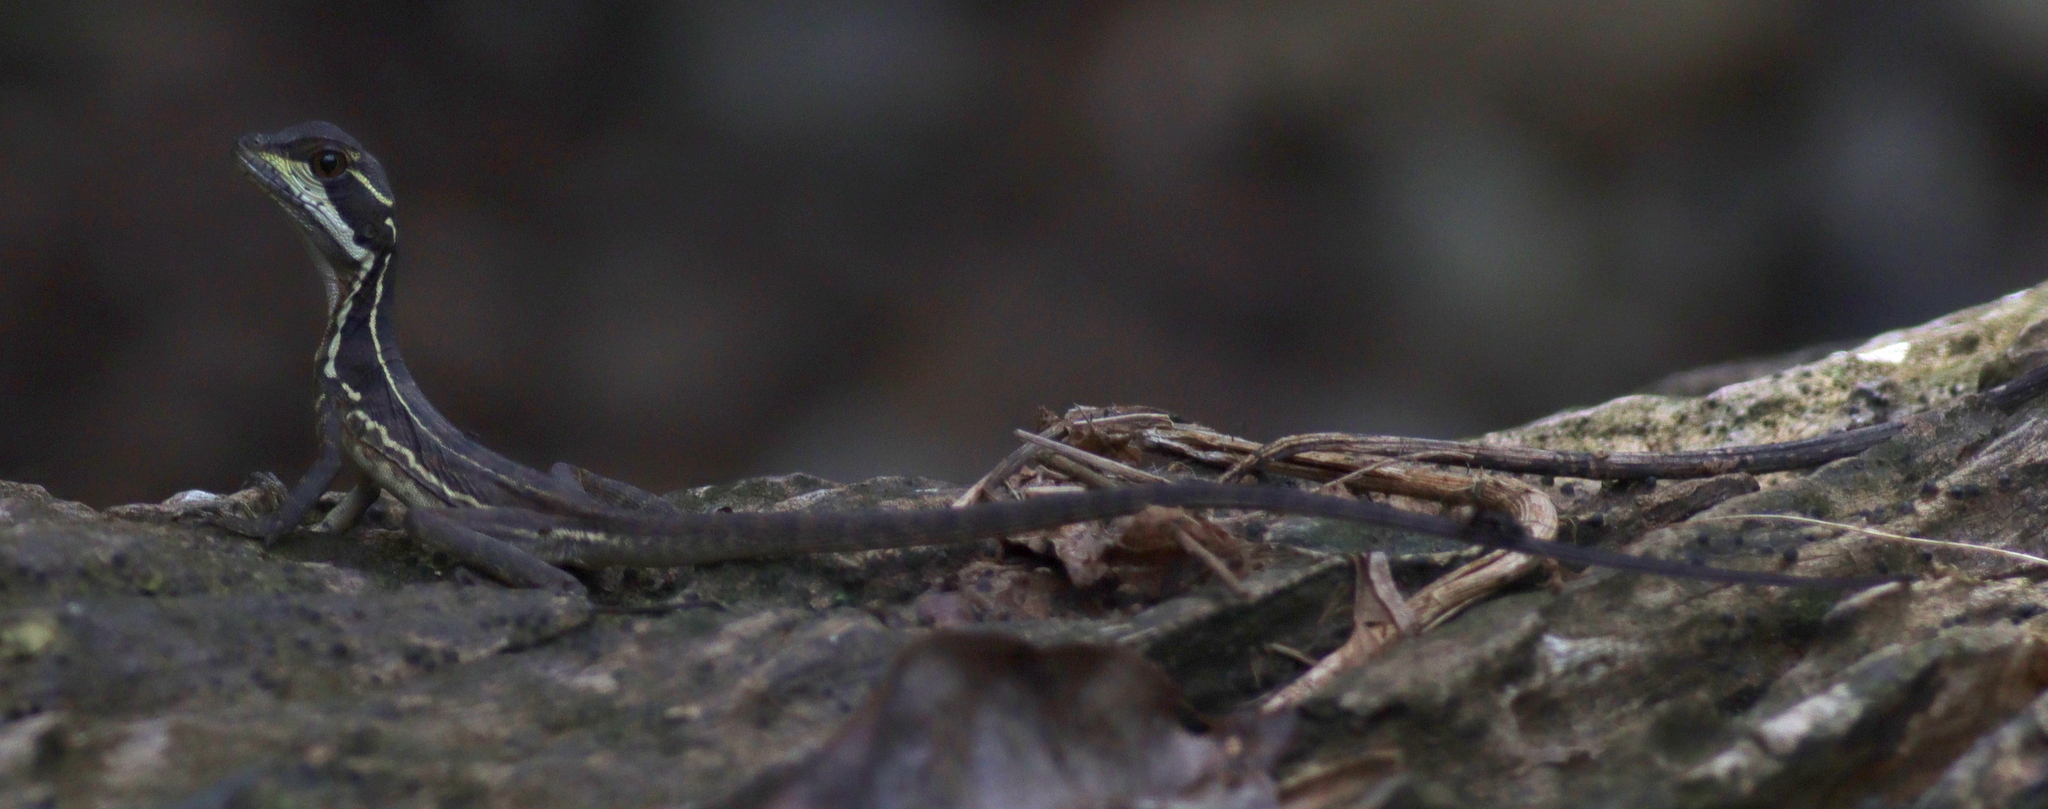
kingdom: Animalia
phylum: Chordata
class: Squamata
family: Corytophanidae
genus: Basiliscus
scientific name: Basiliscus basiliscus
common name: Common basilisk
